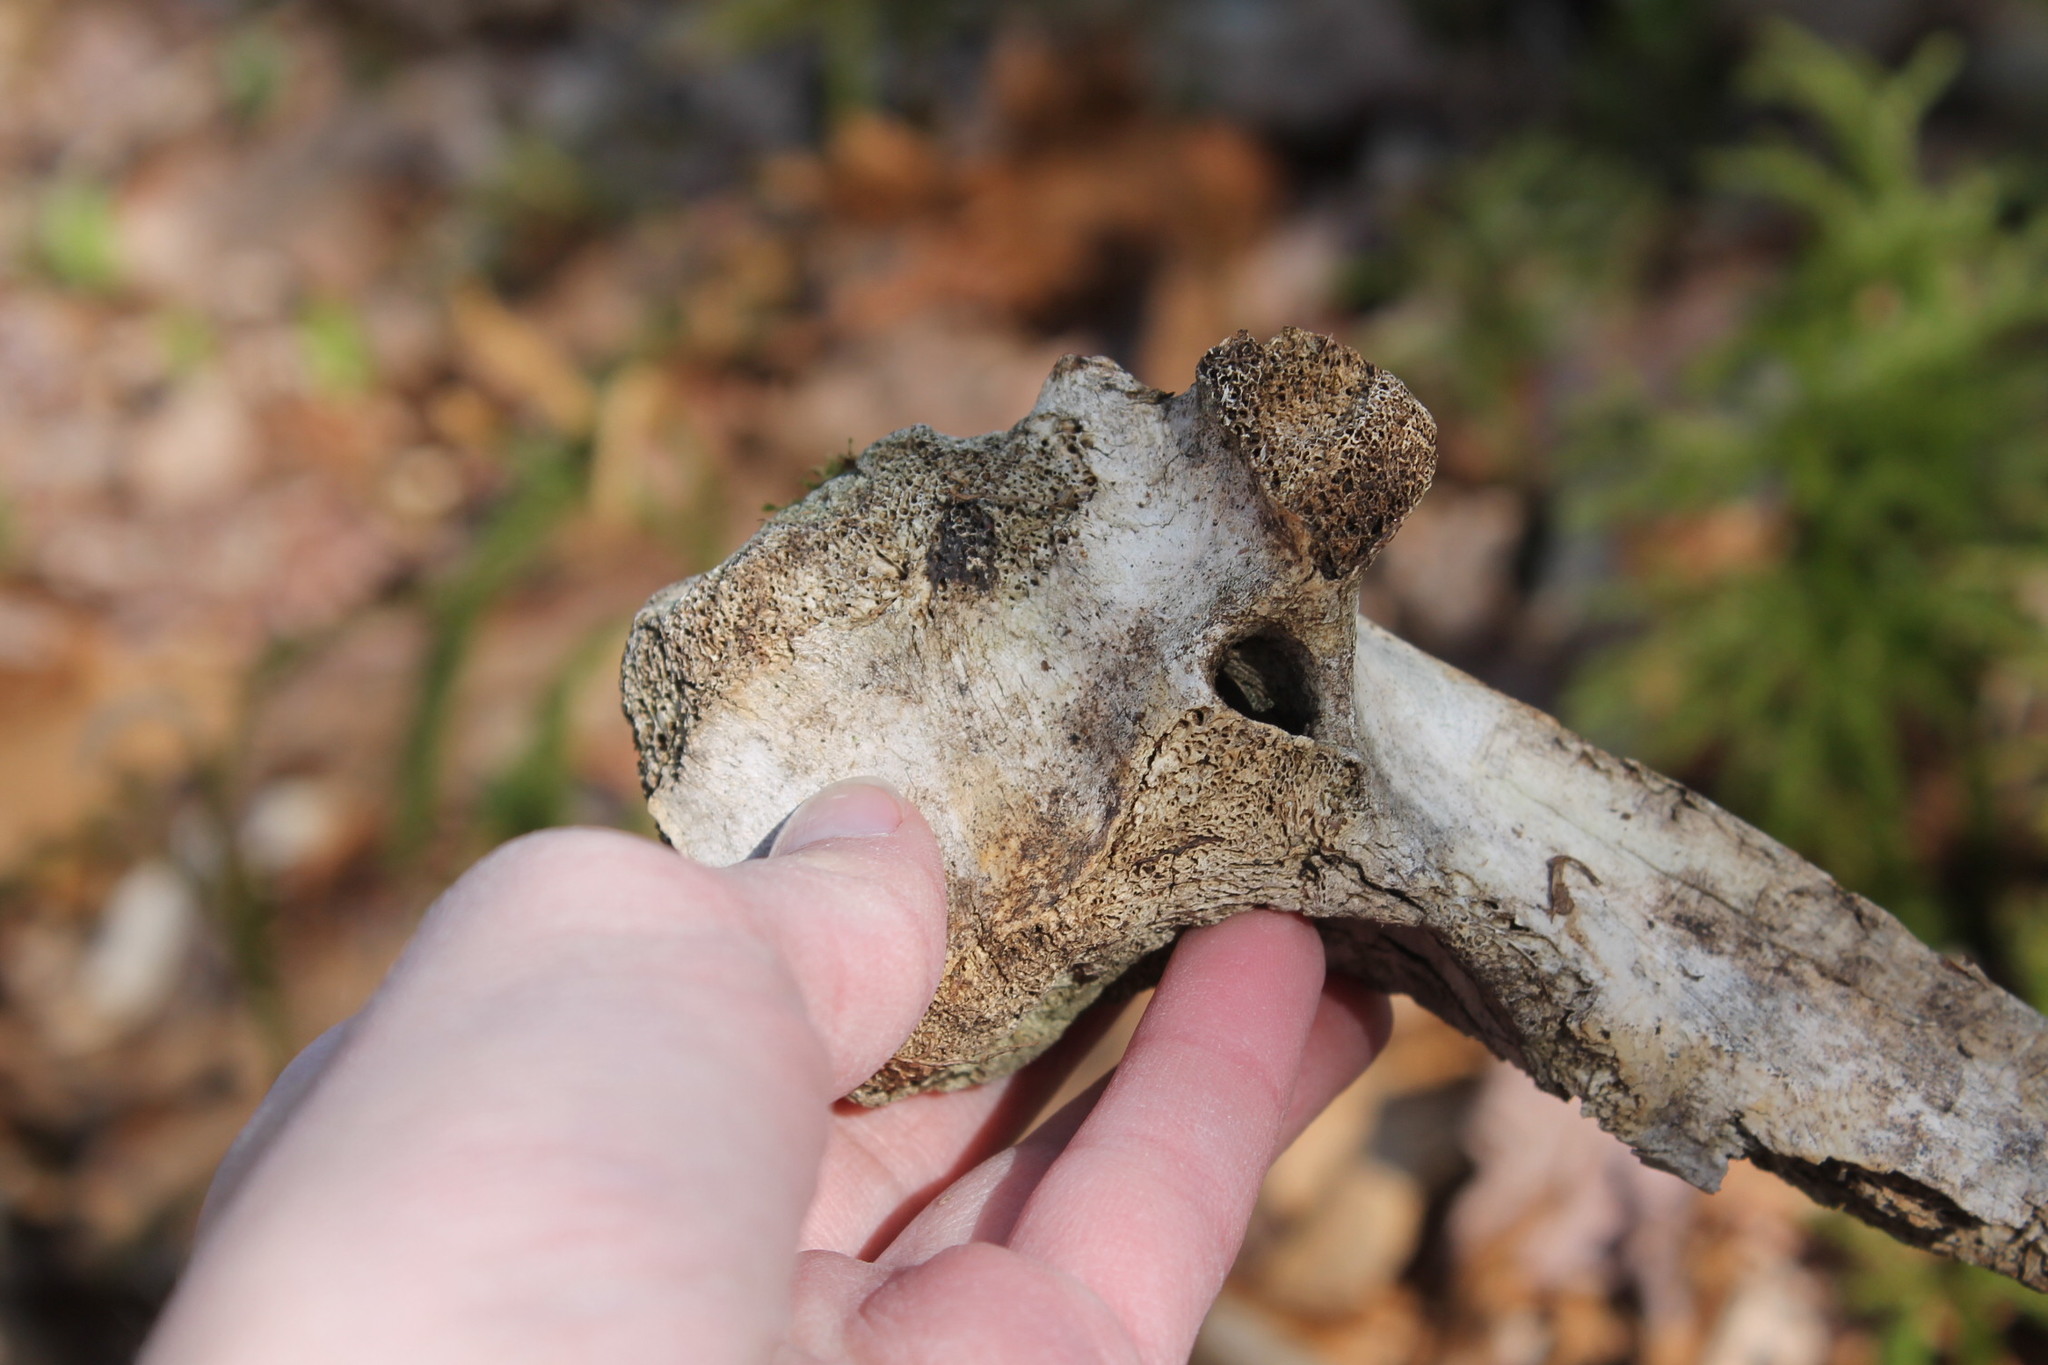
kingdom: Animalia
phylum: Chordata
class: Mammalia
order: Artiodactyla
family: Cervidae
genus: Odocoileus
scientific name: Odocoileus virginianus
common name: White-tailed deer
